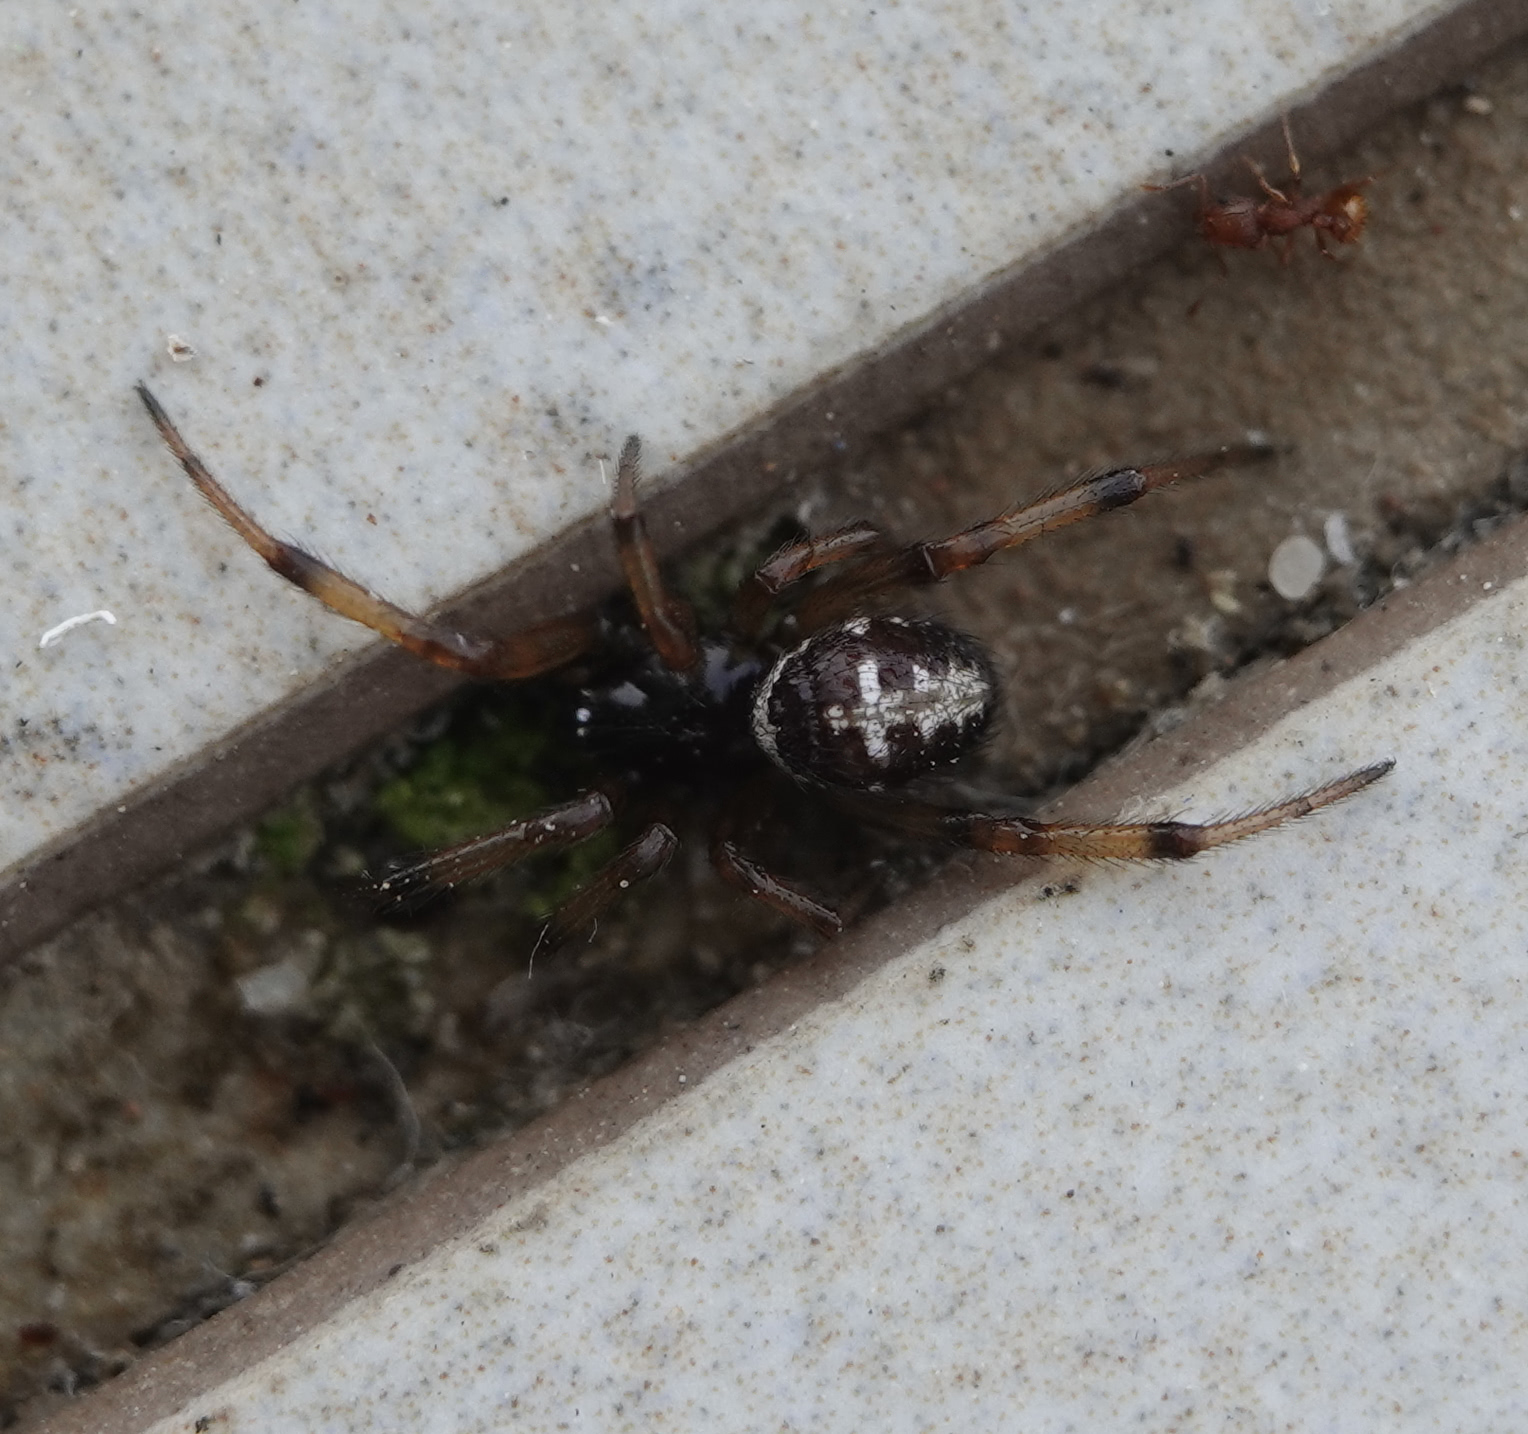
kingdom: Animalia
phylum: Arthropoda
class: Arachnida
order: Araneae
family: Theridiidae
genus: Steatoda
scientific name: Steatoda paykulliana
